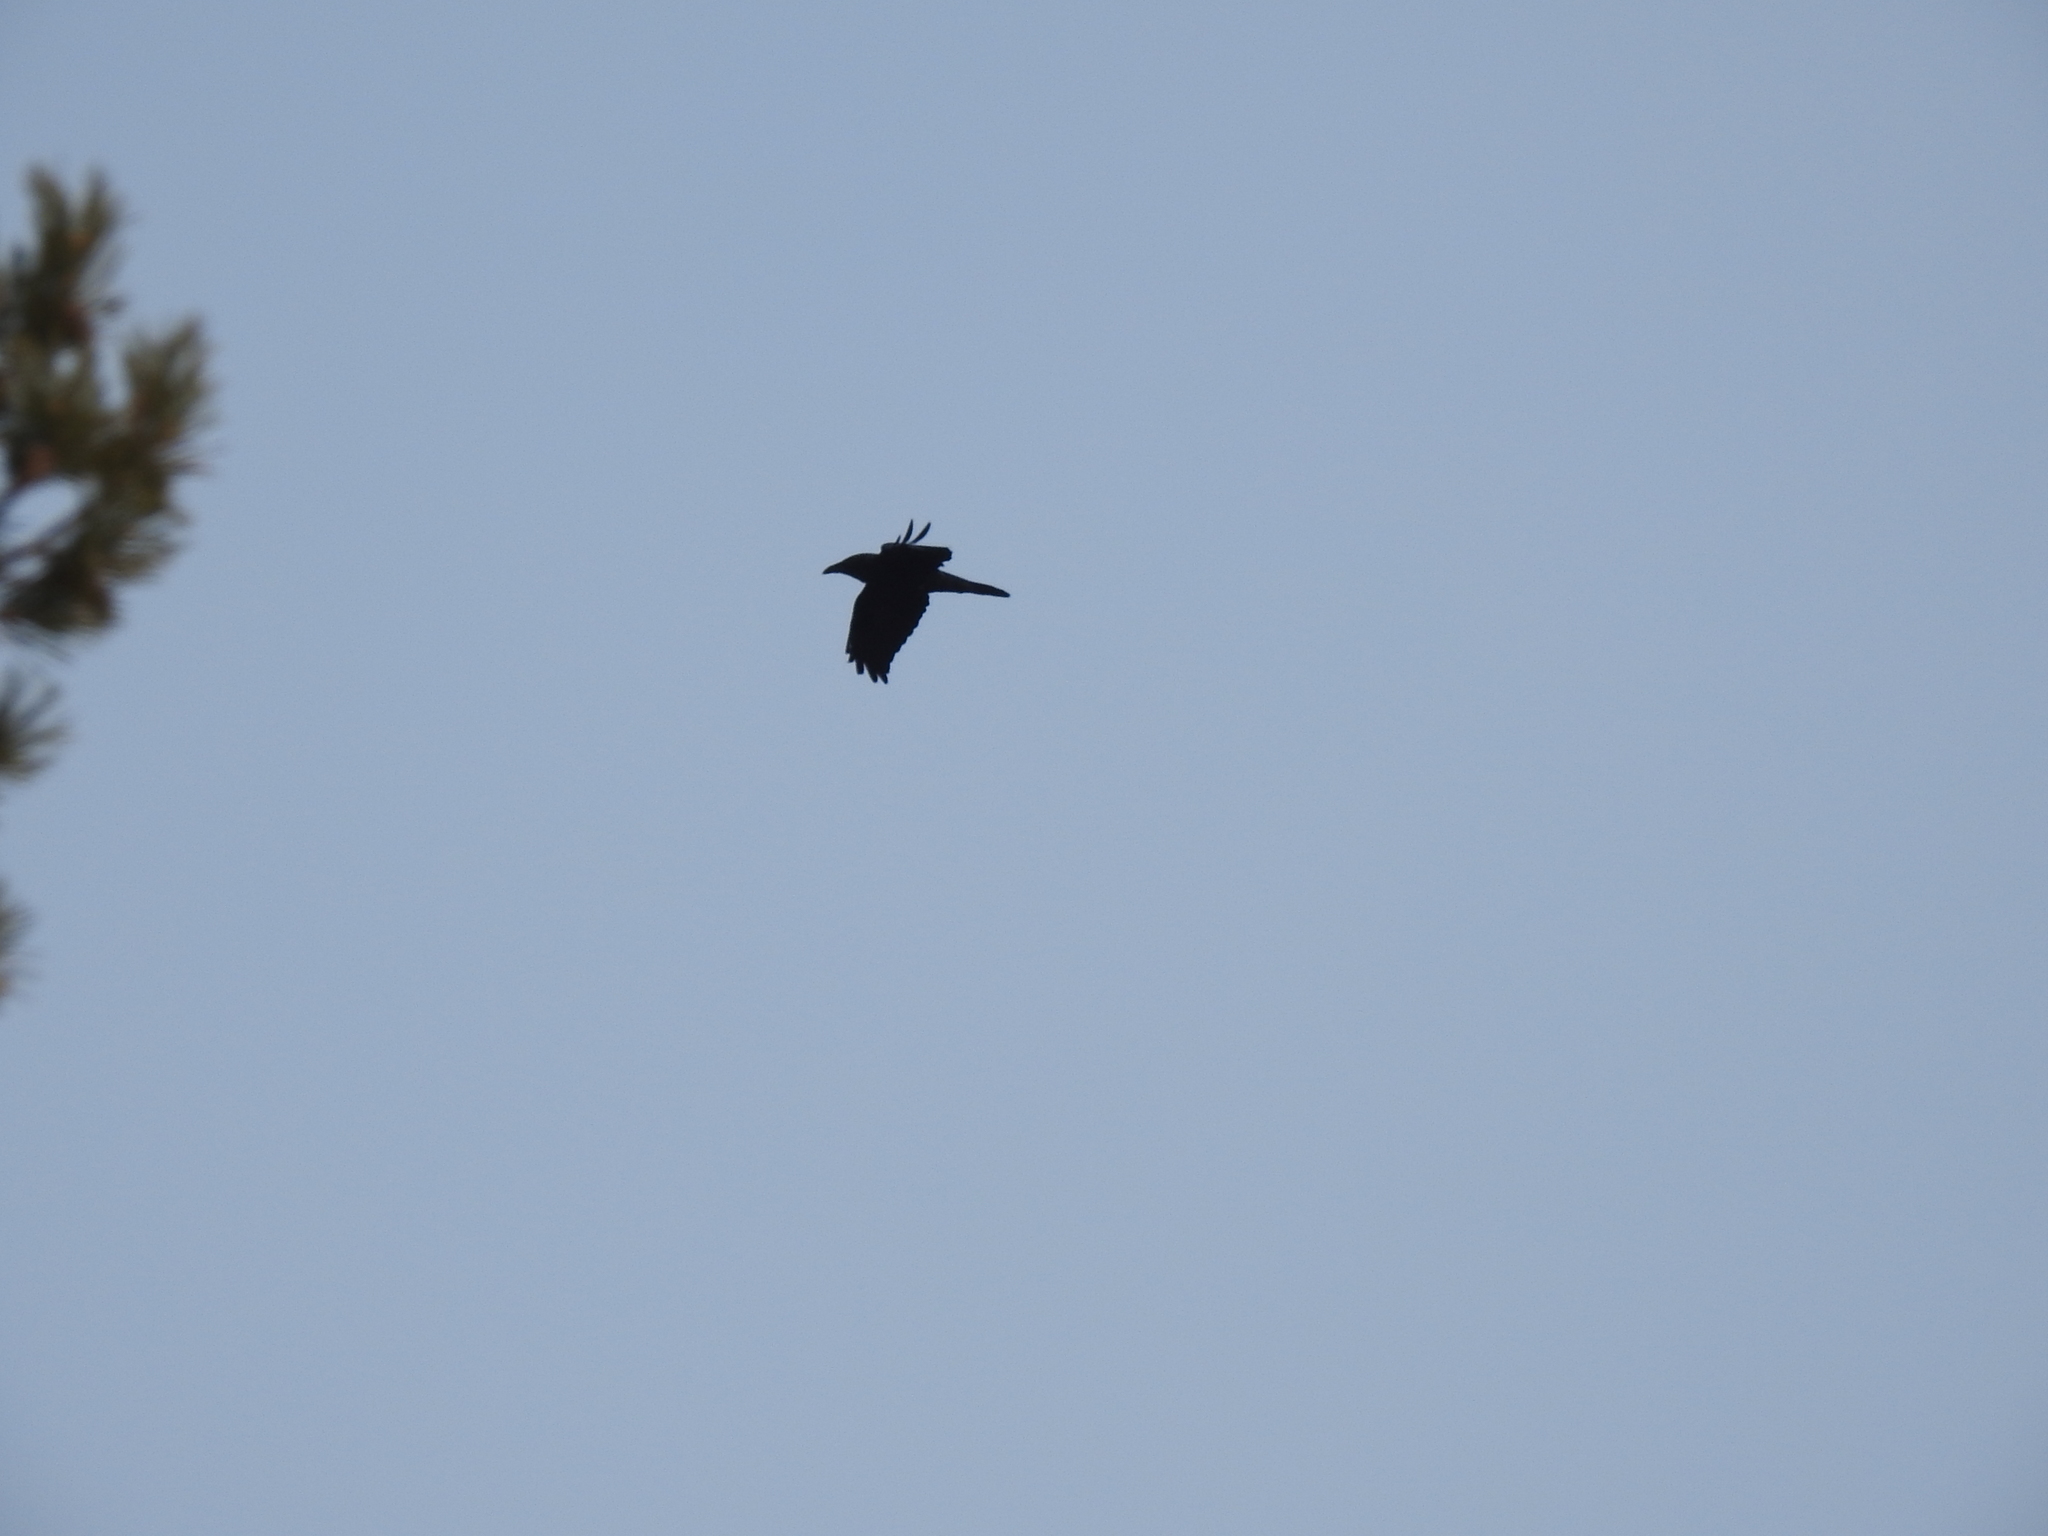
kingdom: Animalia
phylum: Chordata
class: Aves
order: Passeriformes
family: Corvidae
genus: Corvus
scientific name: Corvus corax
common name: Common raven
